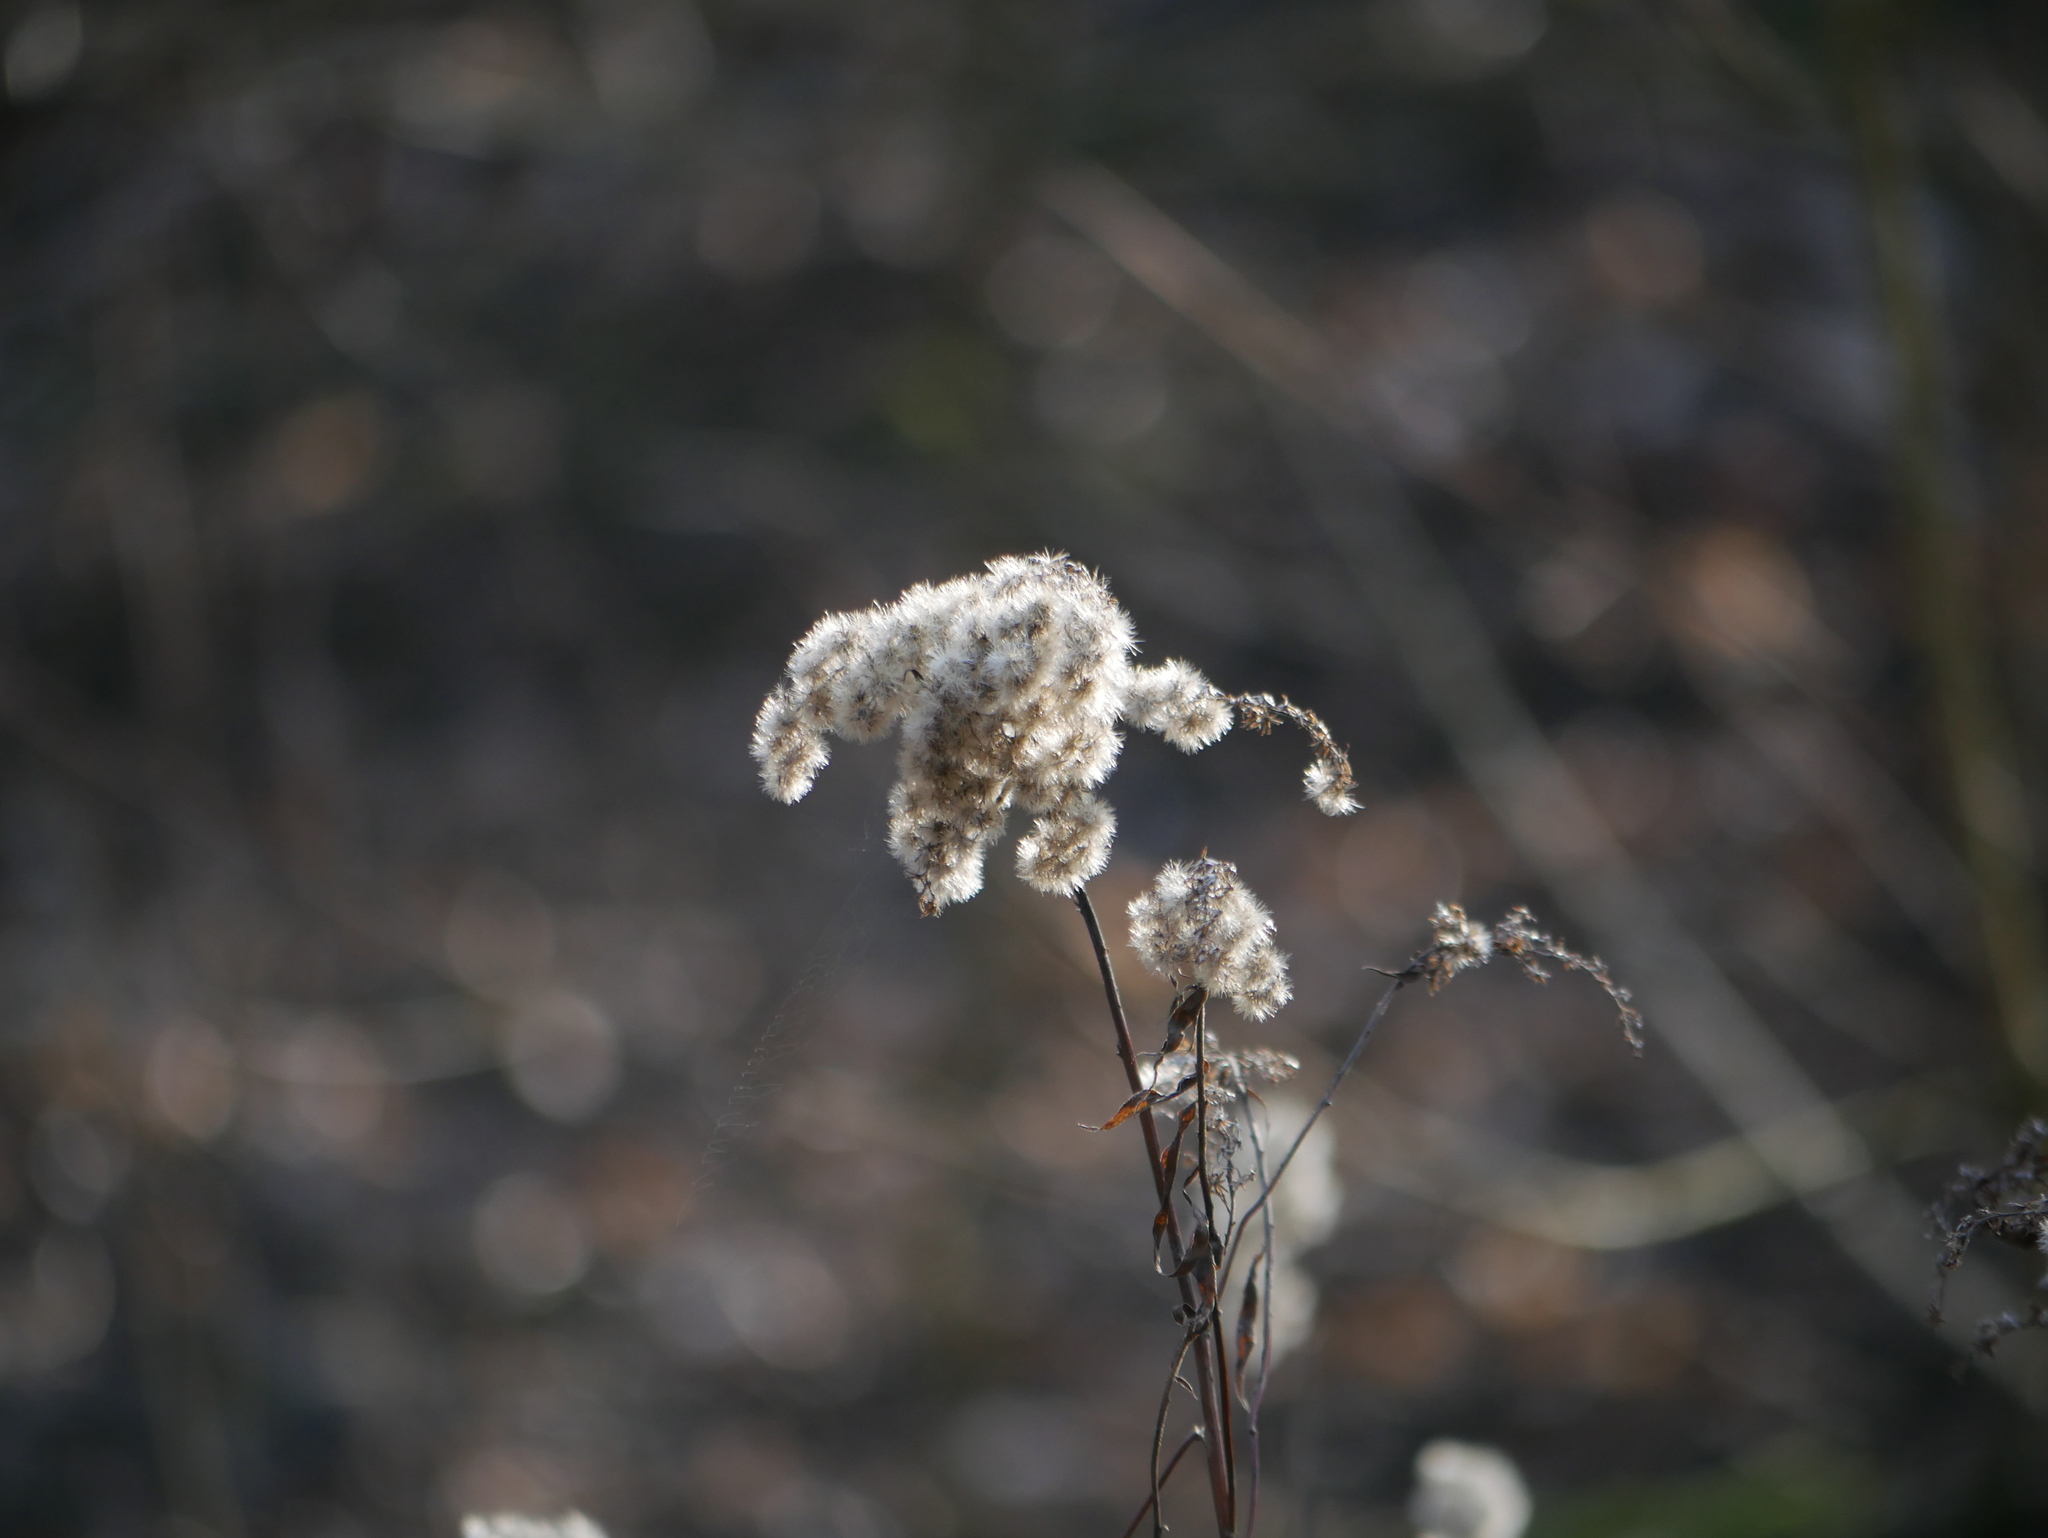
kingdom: Plantae
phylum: Tracheophyta
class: Magnoliopsida
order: Asterales
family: Asteraceae
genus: Solidago
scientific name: Solidago canadensis
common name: Canada goldenrod
